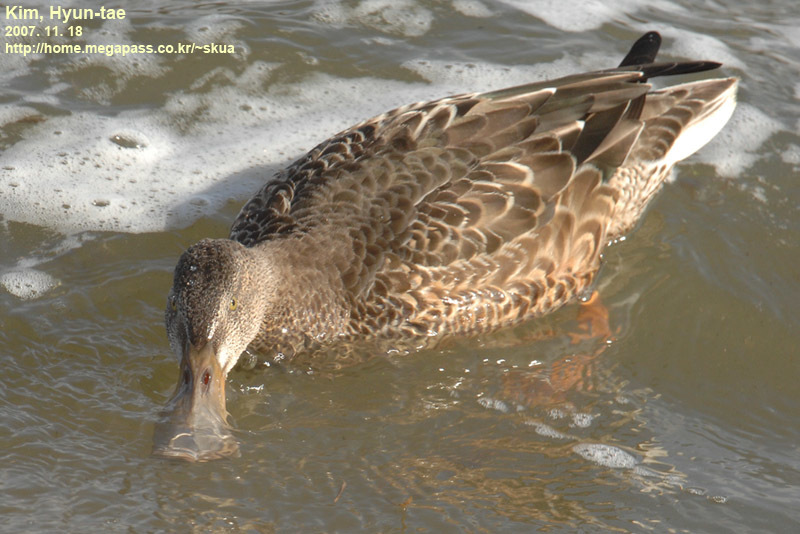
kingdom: Animalia
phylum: Chordata
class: Aves
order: Anseriformes
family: Anatidae
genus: Spatula
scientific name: Spatula clypeata
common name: Northern shoveler
